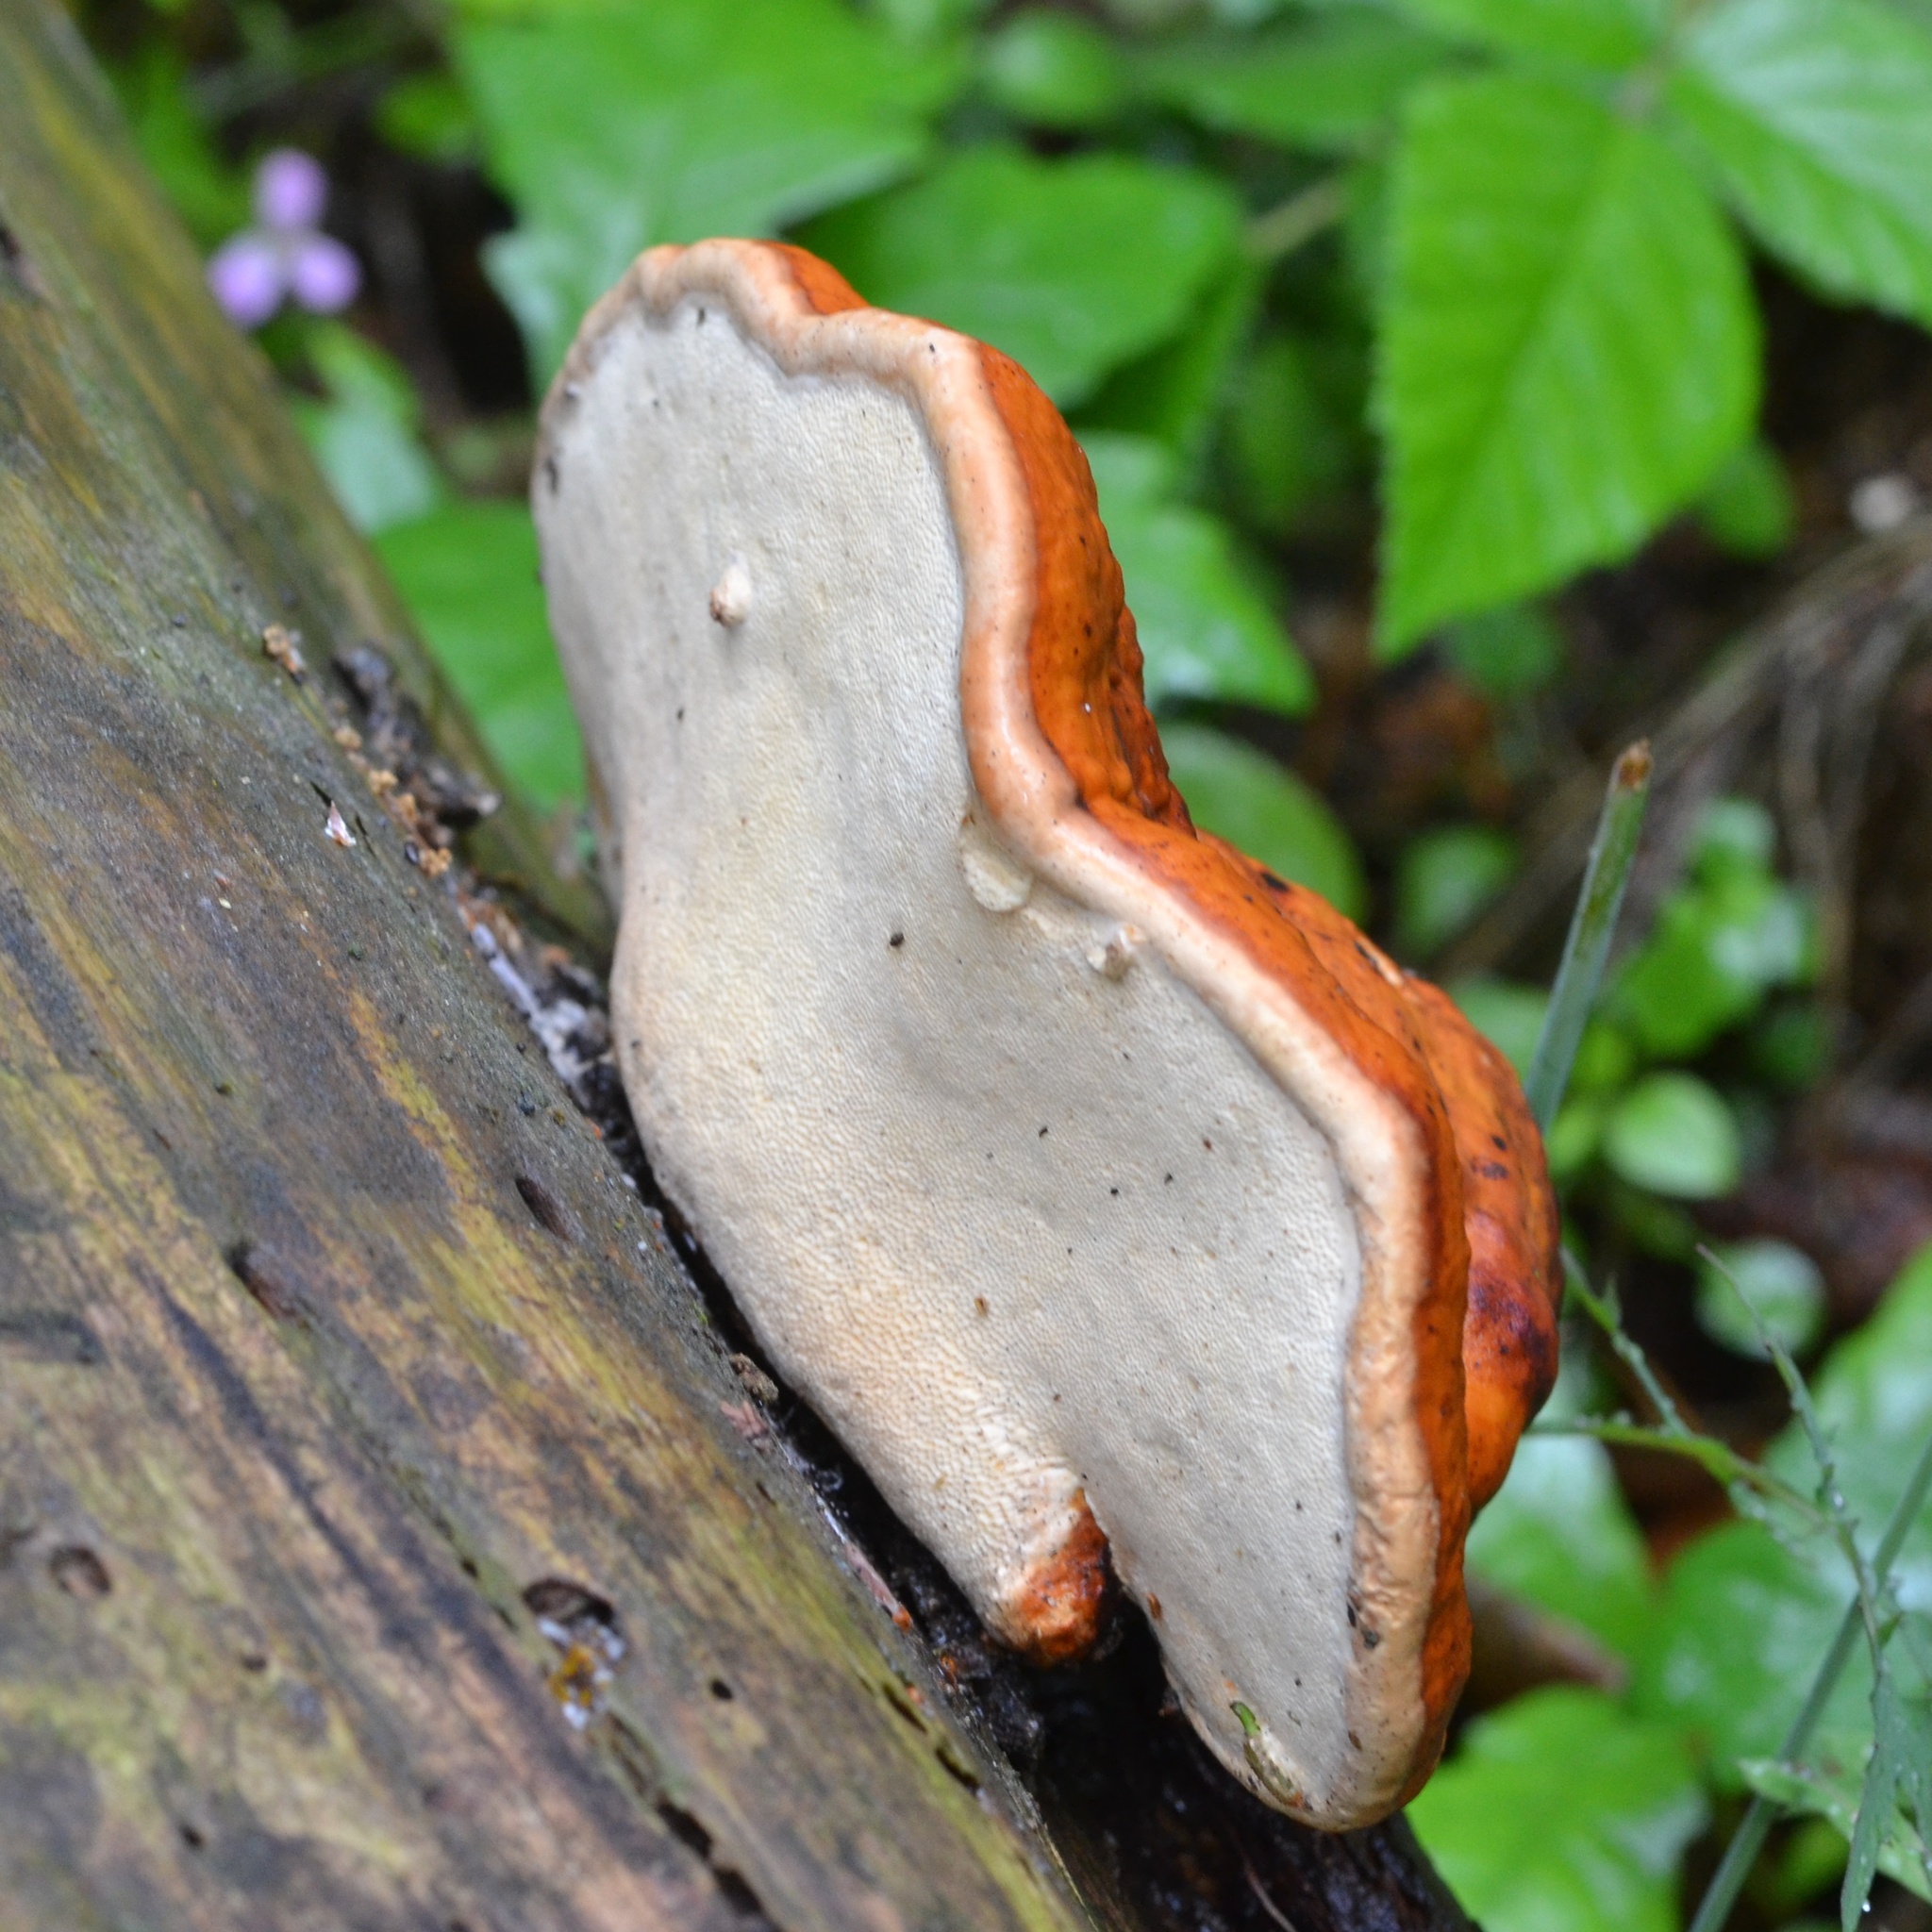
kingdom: Fungi
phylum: Basidiomycota
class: Agaricomycetes
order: Polyporales
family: Fomitopsidaceae
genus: Fomitopsis
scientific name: Fomitopsis pinicola
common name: Red-belted bracket
